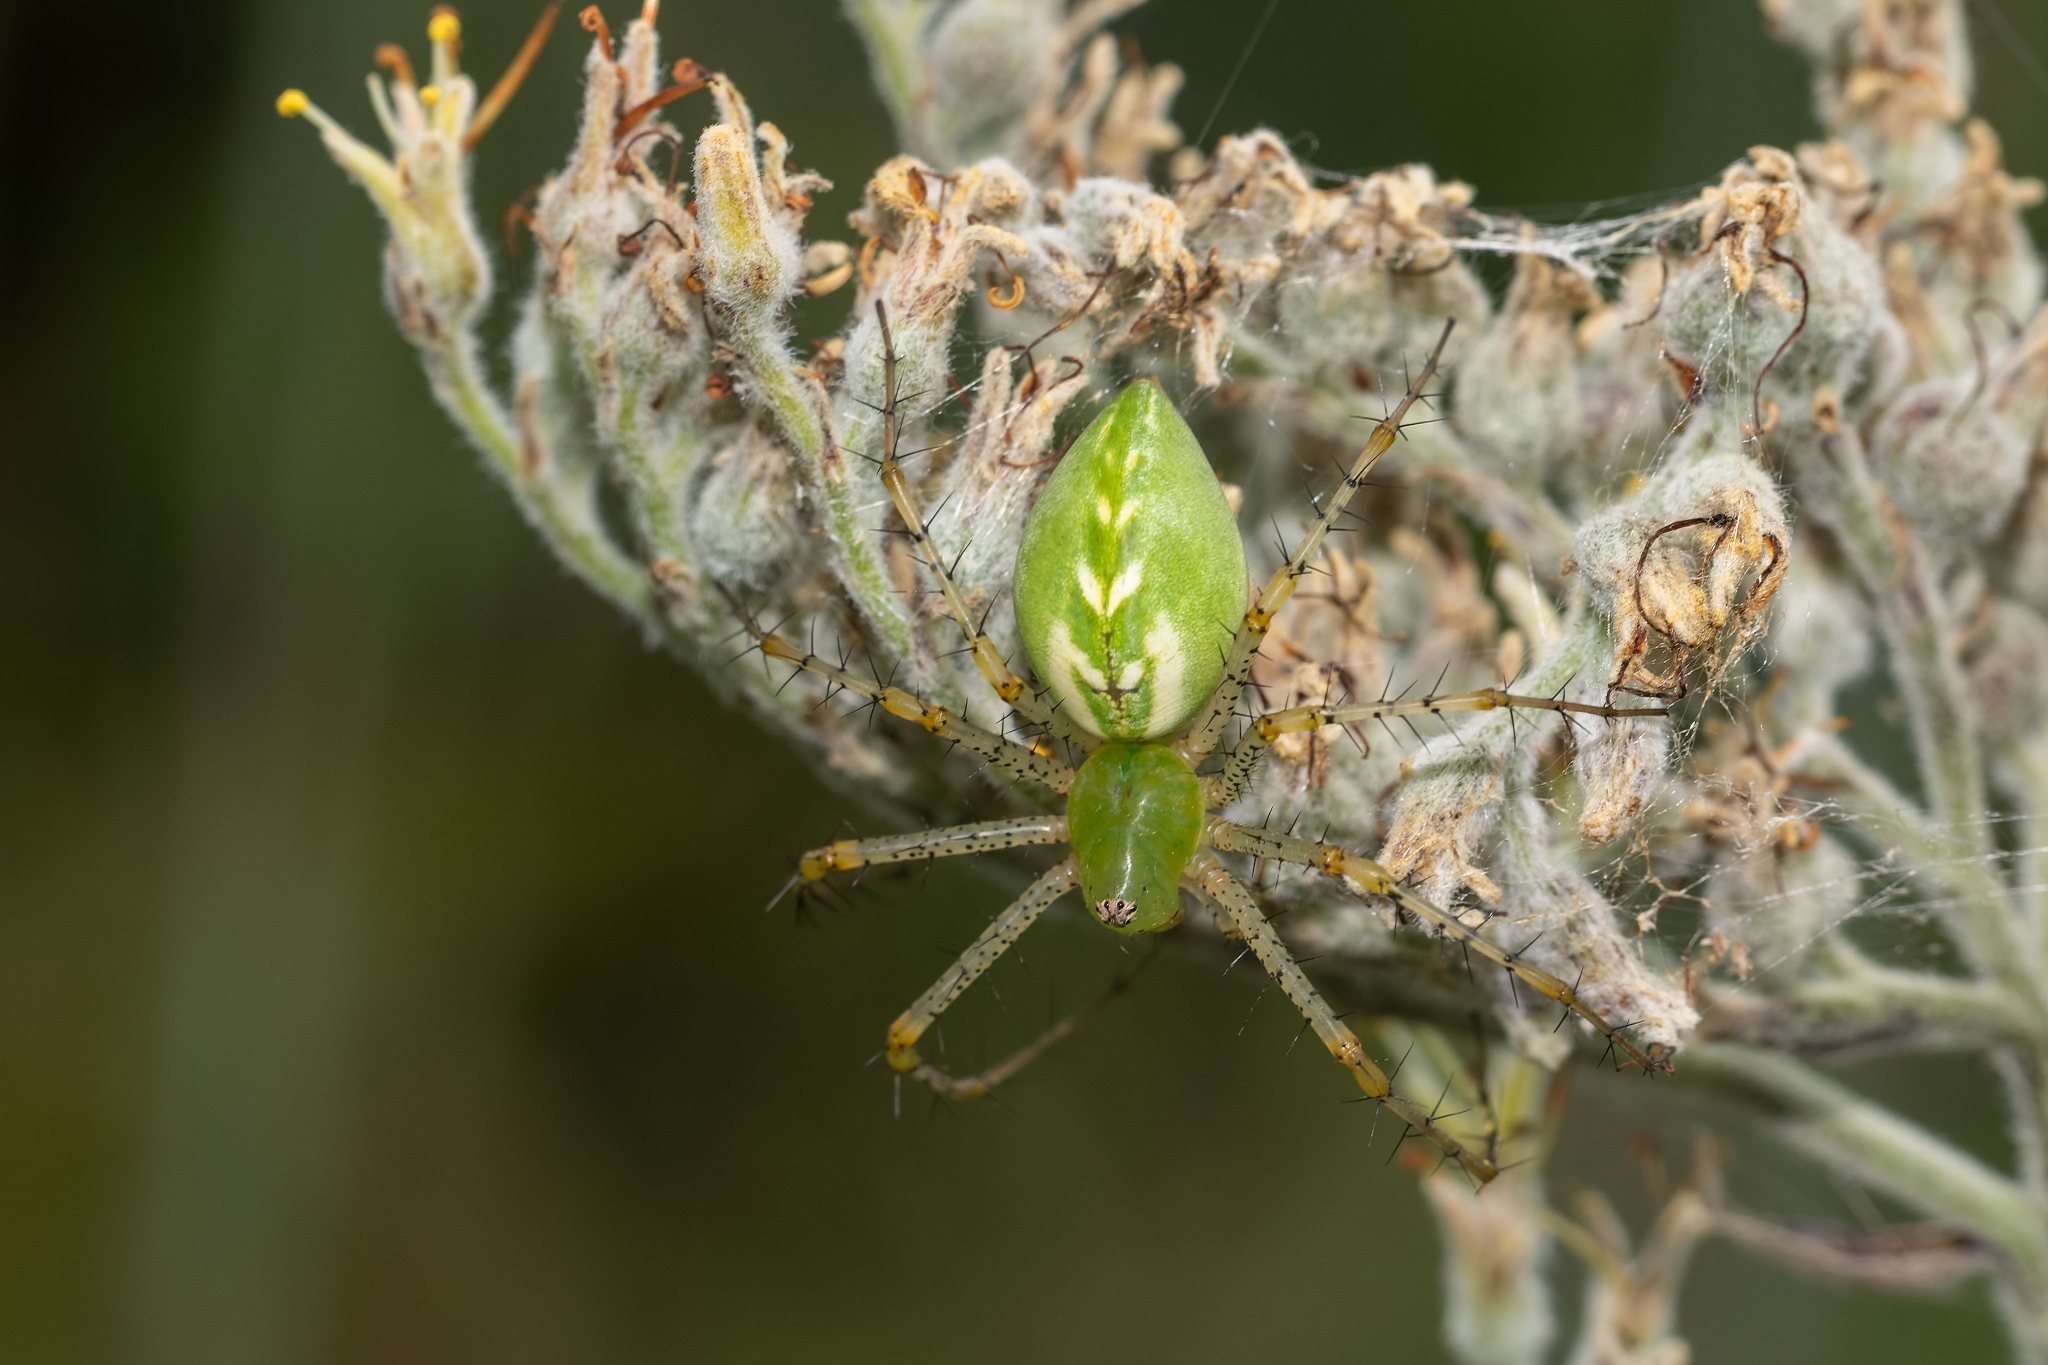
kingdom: Animalia
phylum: Arthropoda
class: Arachnida
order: Araneae
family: Oxyopidae
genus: Peucetia
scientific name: Peucetia viridans
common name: Lynx spiders
